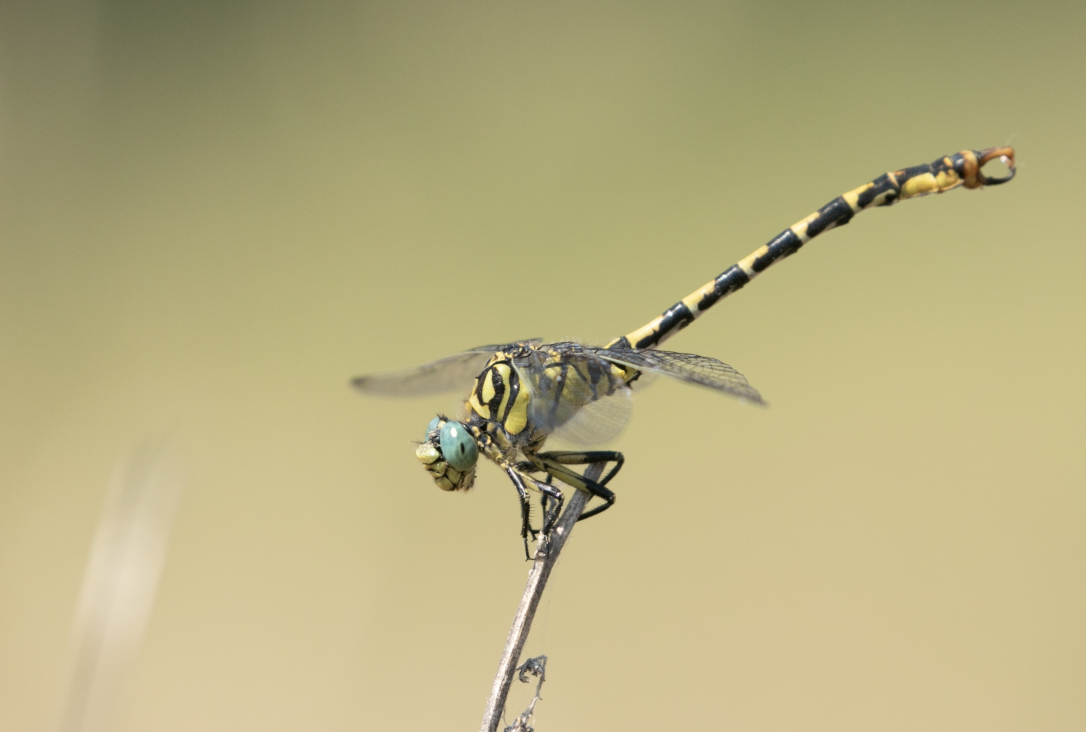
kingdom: Animalia
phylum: Arthropoda
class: Insecta
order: Odonata
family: Gomphidae
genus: Onychogomphus
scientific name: Onychogomphus forcipatus
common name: Small pincertail
